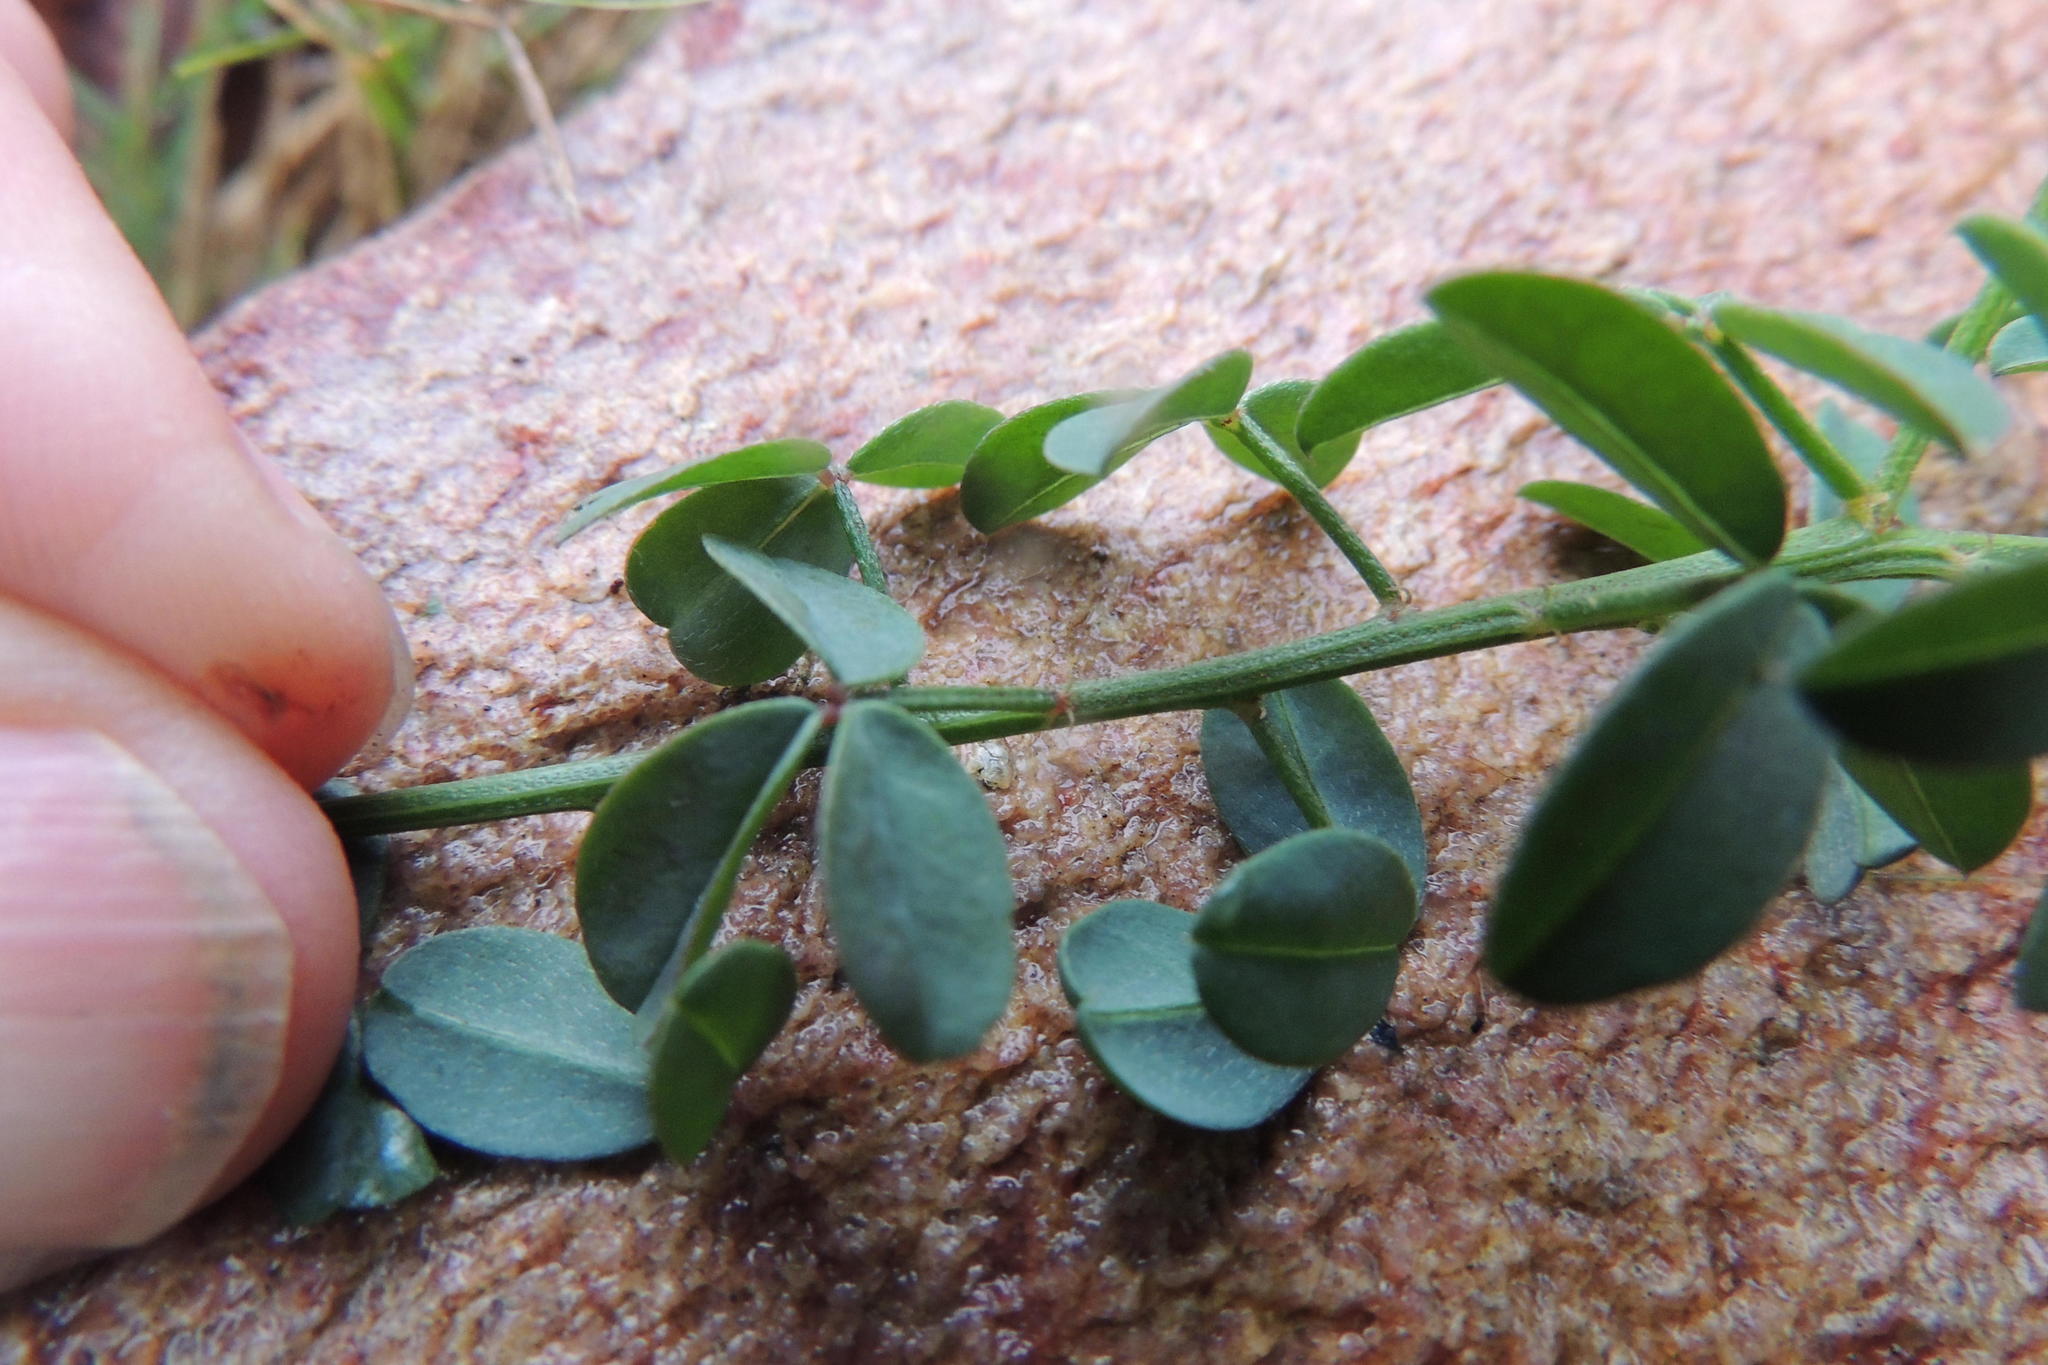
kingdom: Plantae
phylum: Tracheophyta
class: Magnoliopsida
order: Fabales
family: Fabaceae
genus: Indigofera
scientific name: Indigofera heterophylla
